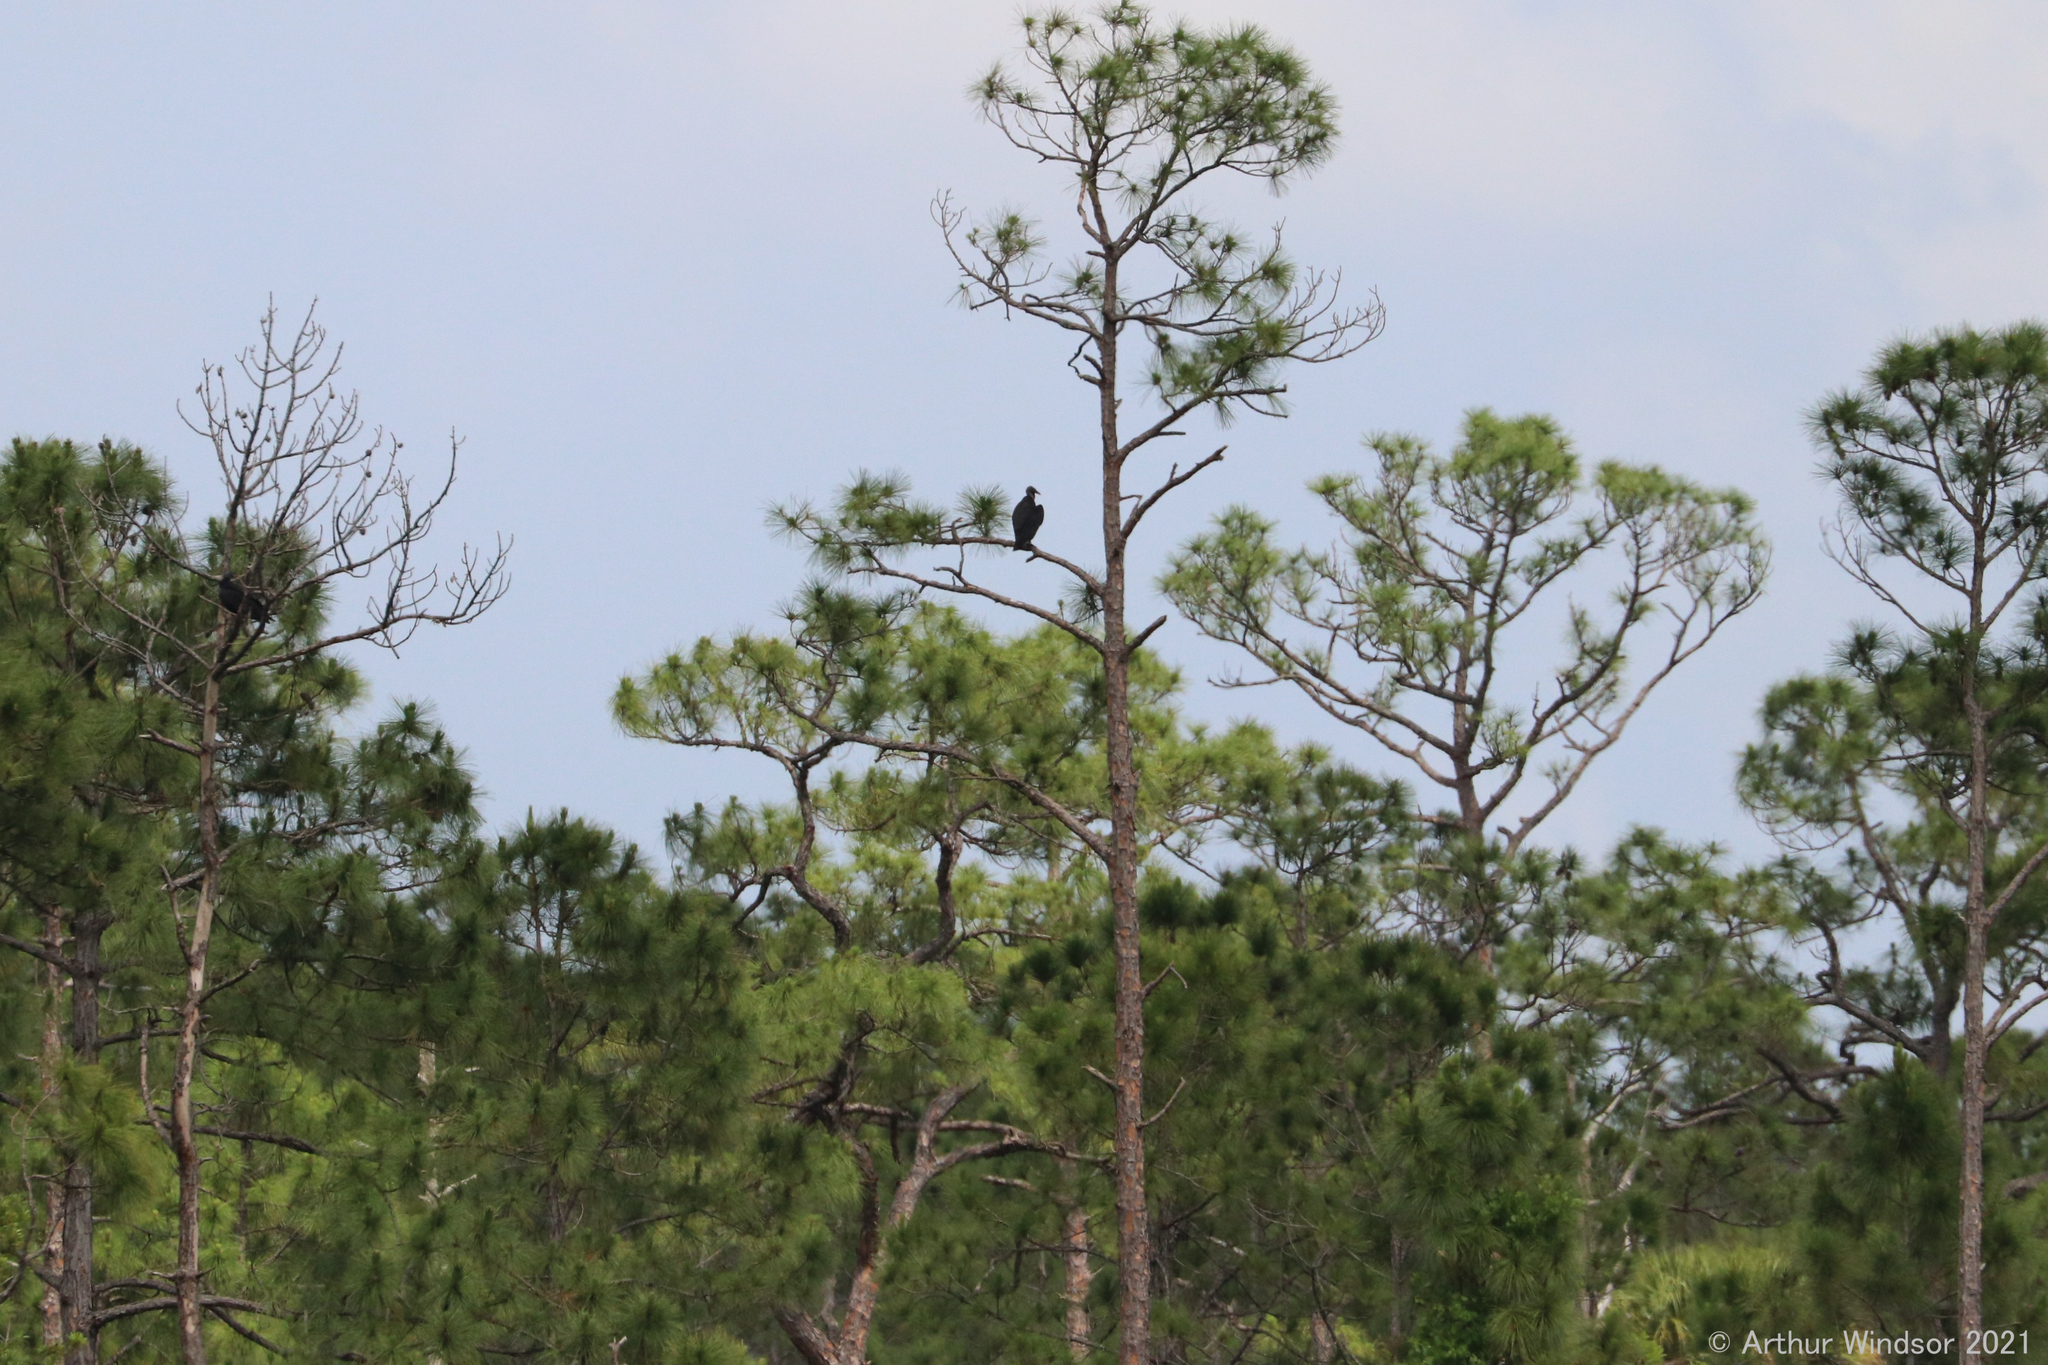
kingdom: Animalia
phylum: Chordata
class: Aves
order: Accipitriformes
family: Cathartidae
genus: Coragyps
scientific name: Coragyps atratus
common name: Black vulture
